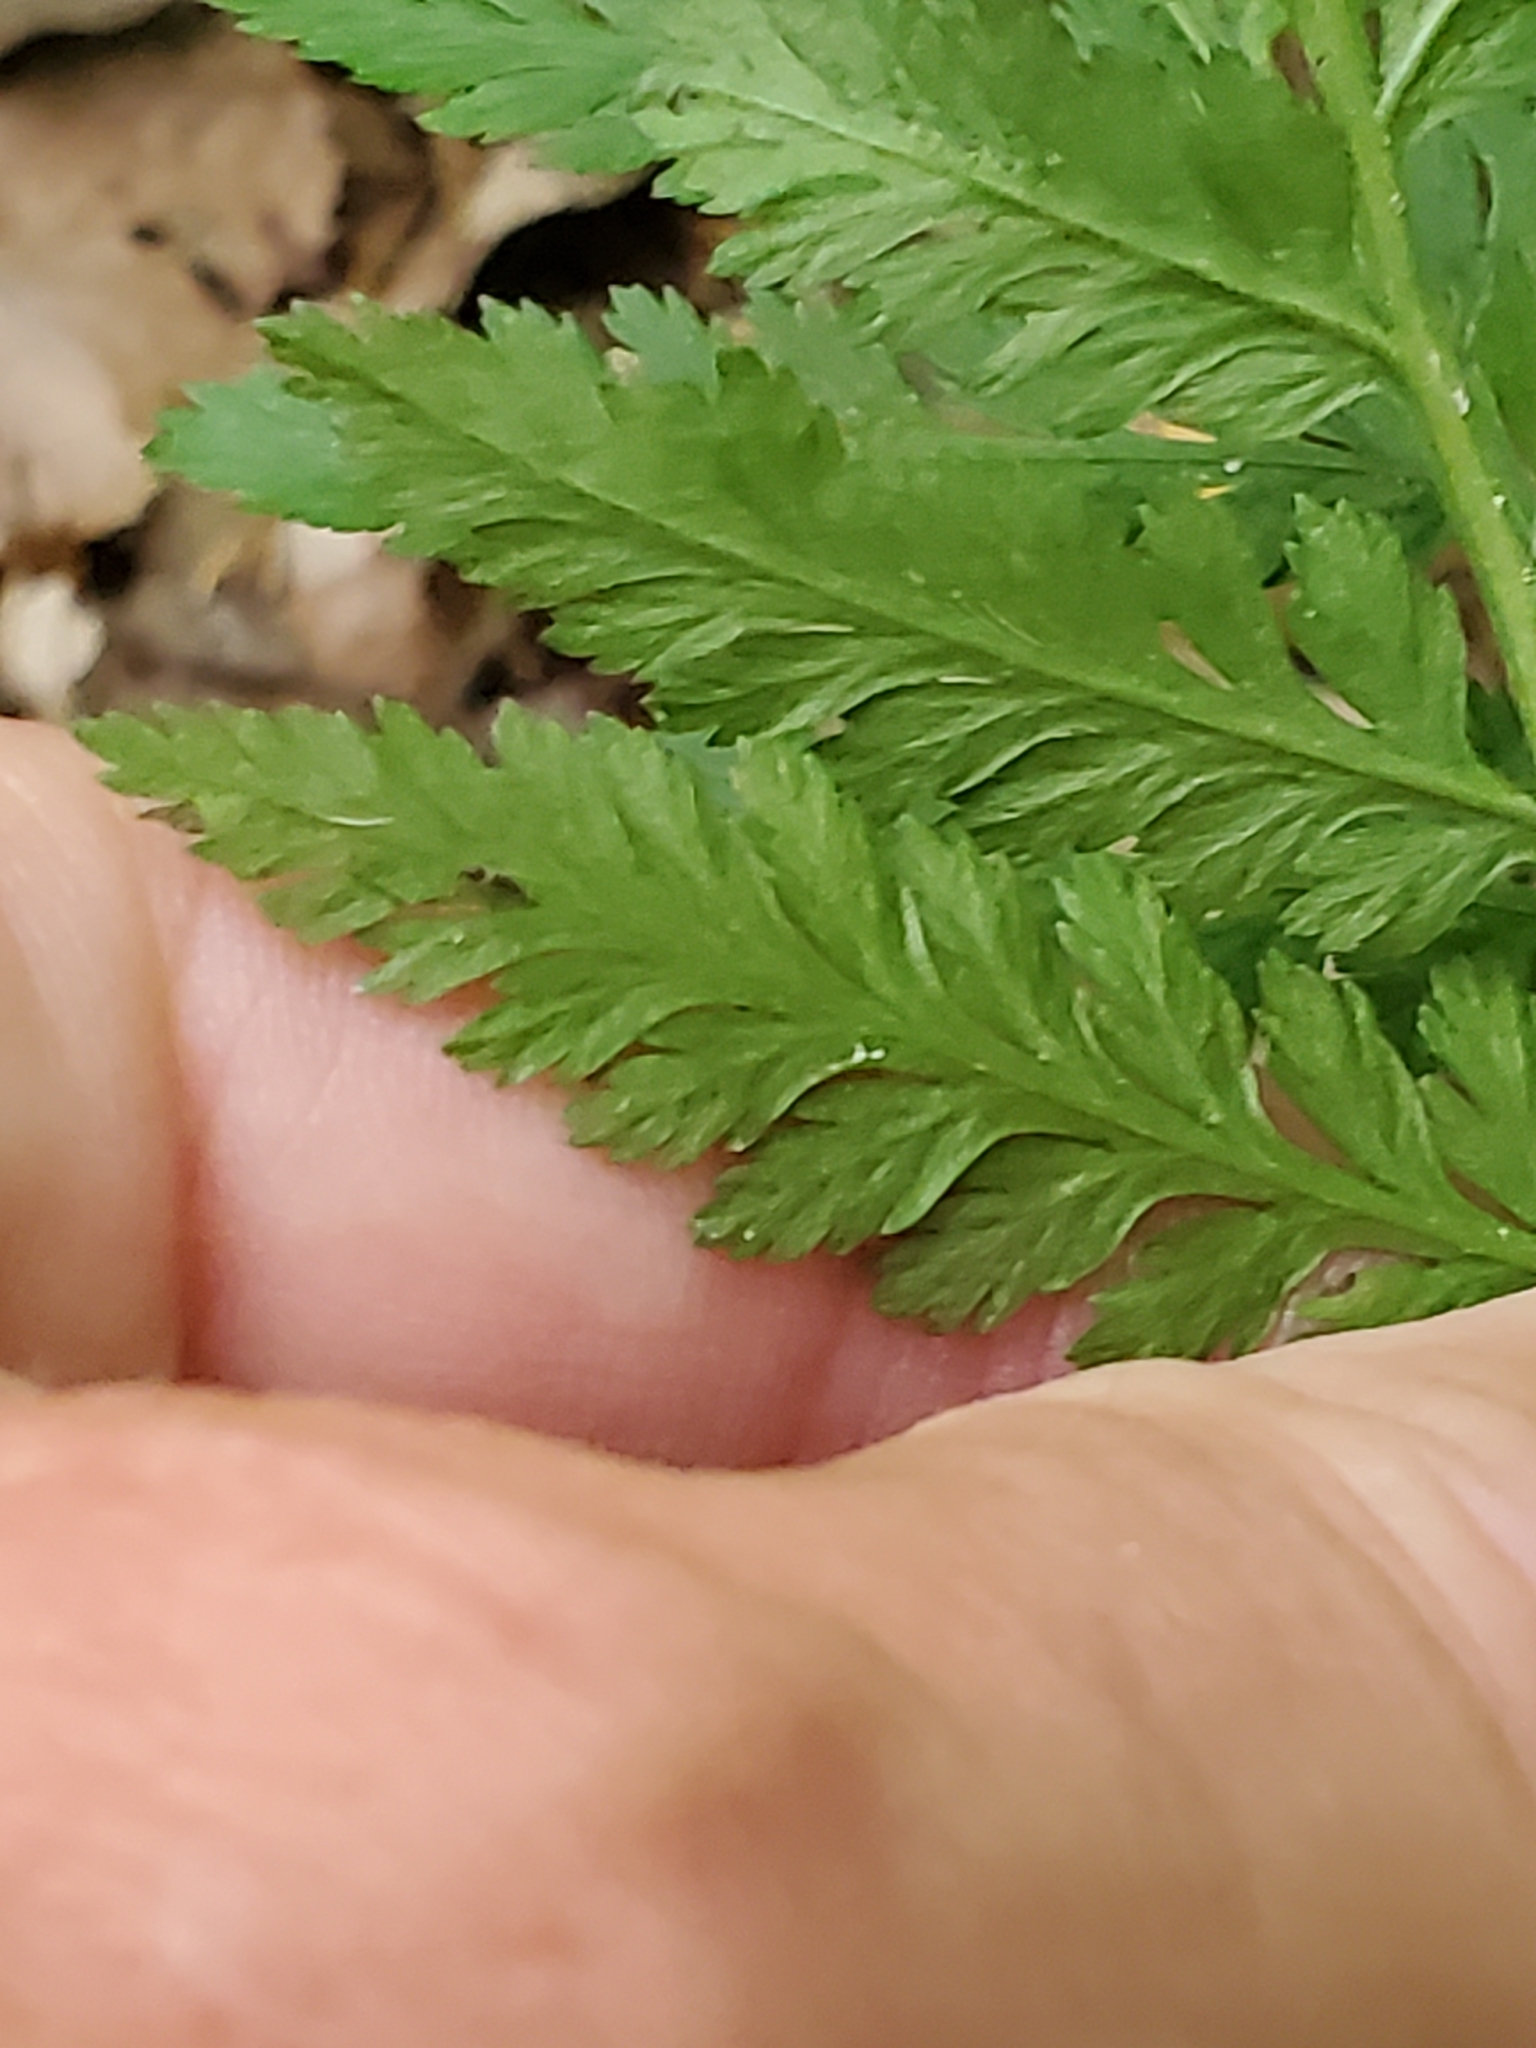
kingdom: Plantae
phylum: Tracheophyta
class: Polypodiopsida
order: Ophioglossales
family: Ophioglossaceae
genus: Botrypus
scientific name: Botrypus virginianus
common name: Common grapefern
